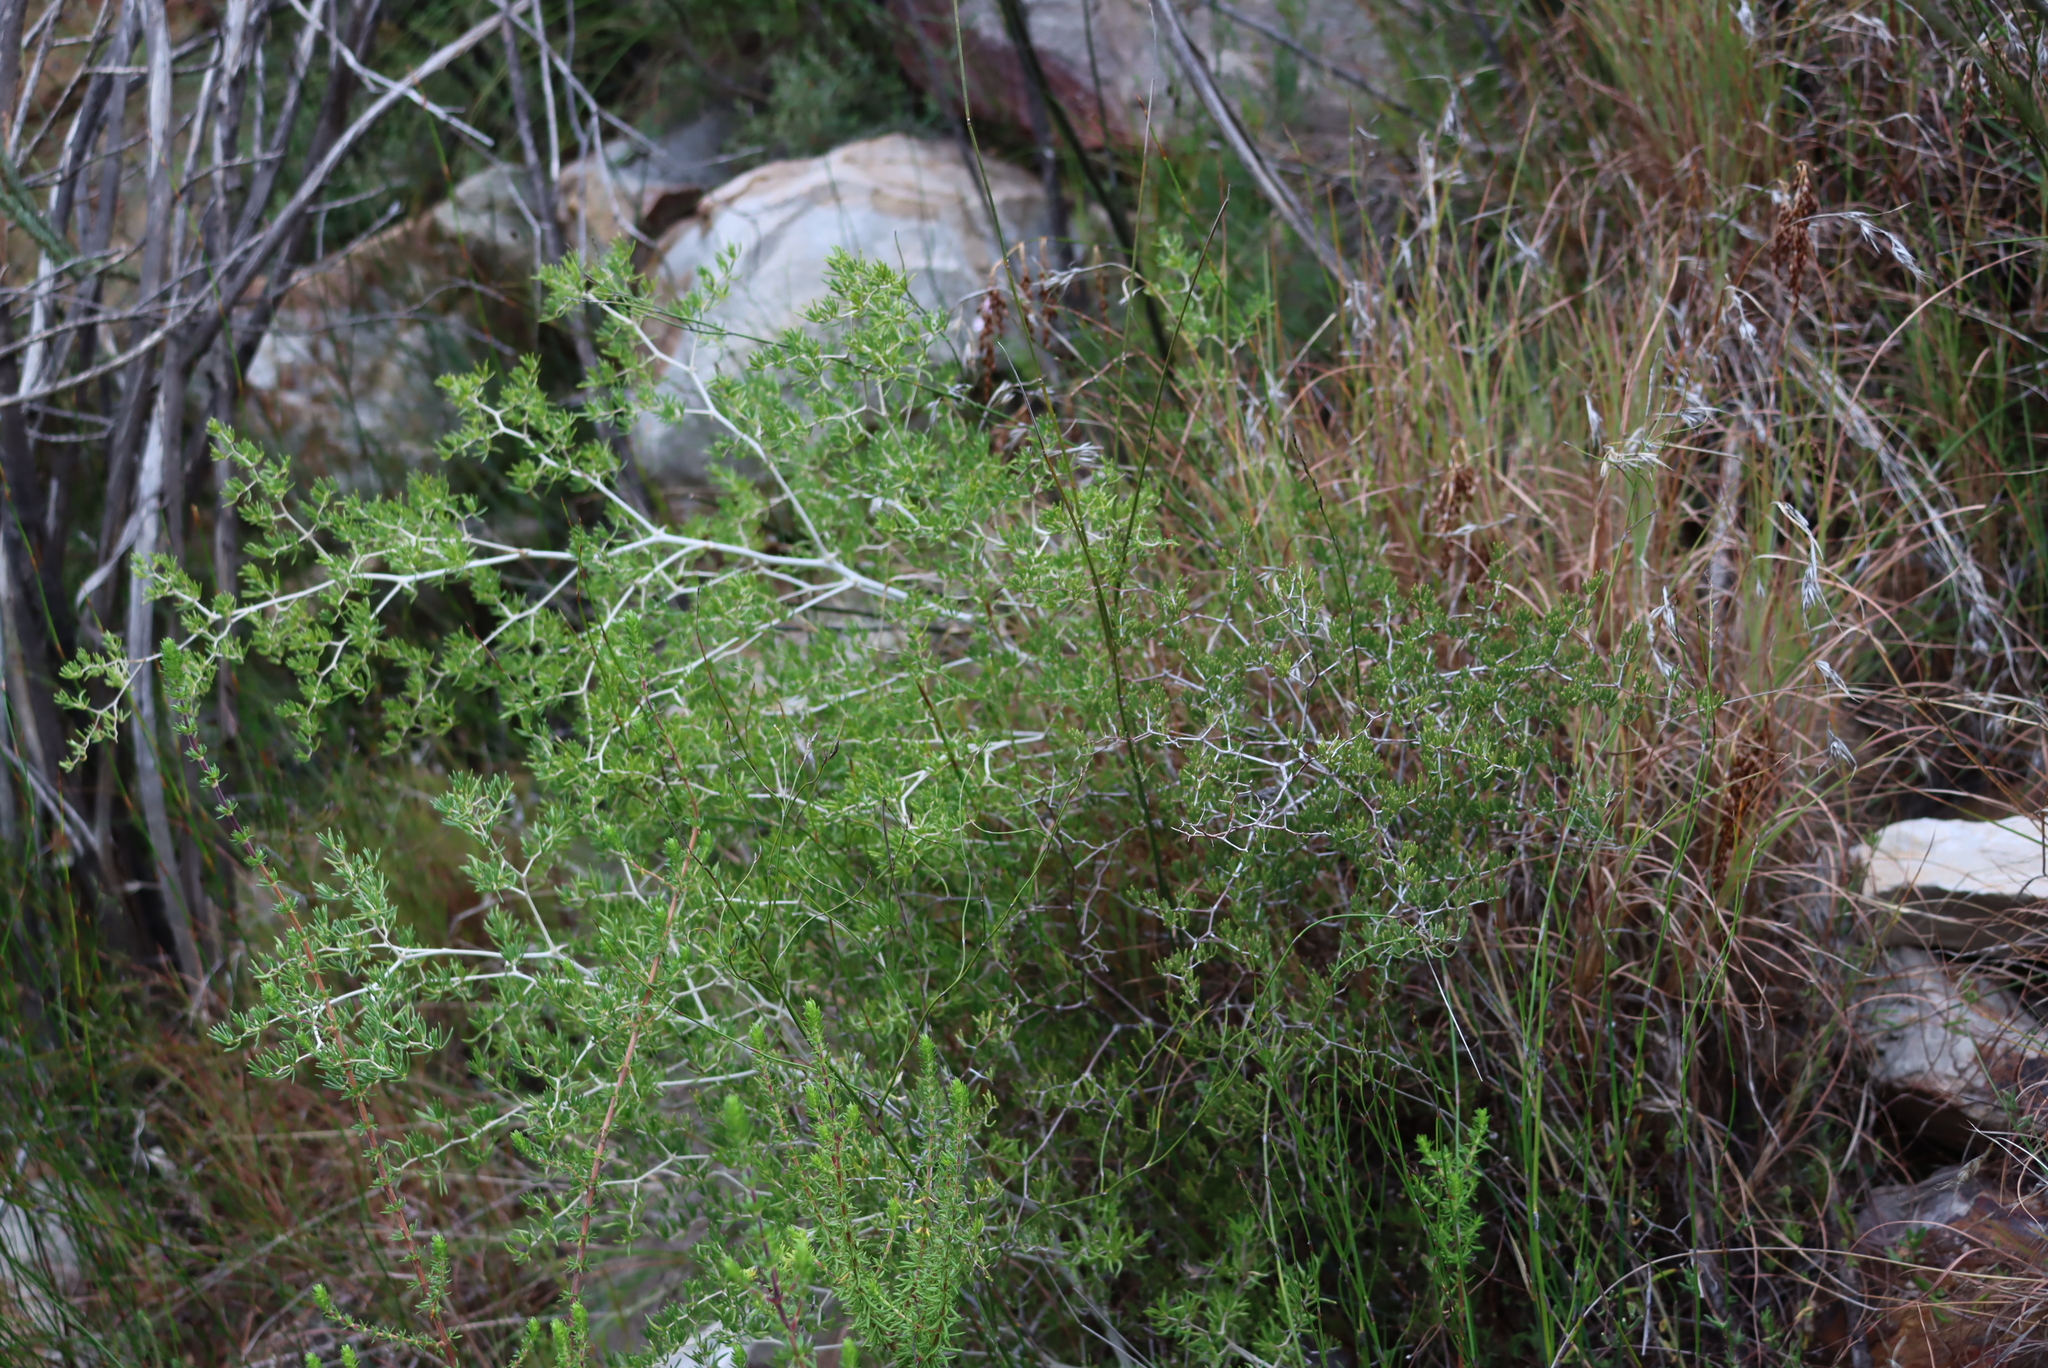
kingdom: Plantae
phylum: Tracheophyta
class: Liliopsida
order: Poales
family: Poaceae
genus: Themeda
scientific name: Themeda triandra
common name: Kangaroo grass
